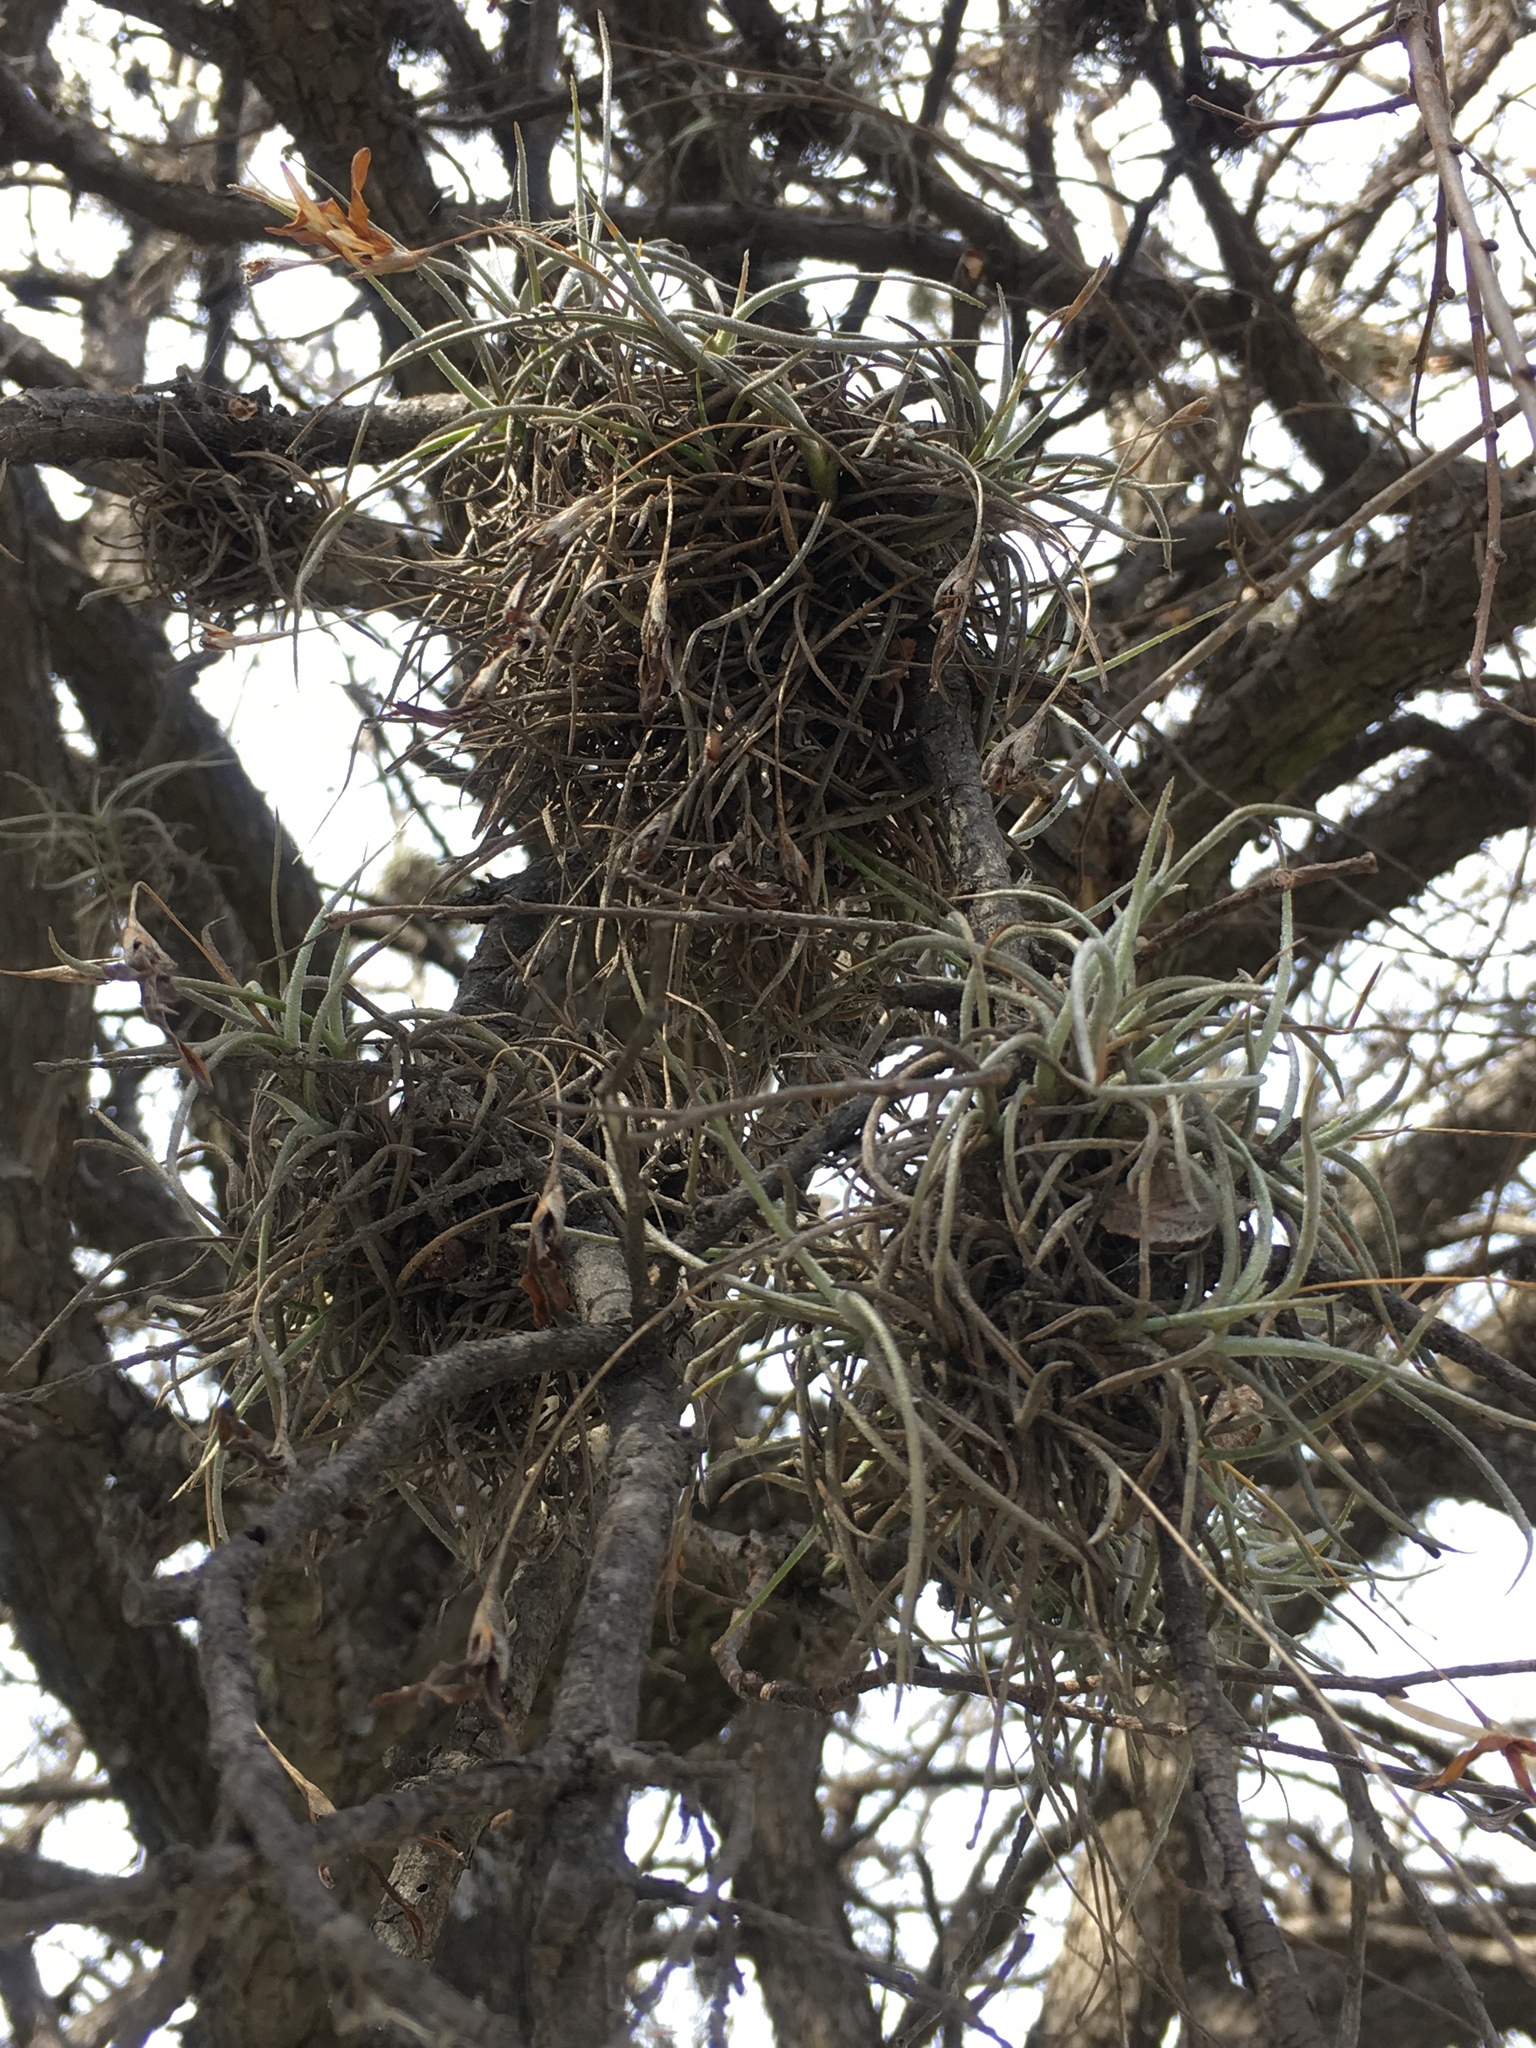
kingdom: Plantae
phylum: Tracheophyta
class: Liliopsida
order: Poales
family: Bromeliaceae
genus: Tillandsia
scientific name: Tillandsia recurvata
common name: Small ballmoss
